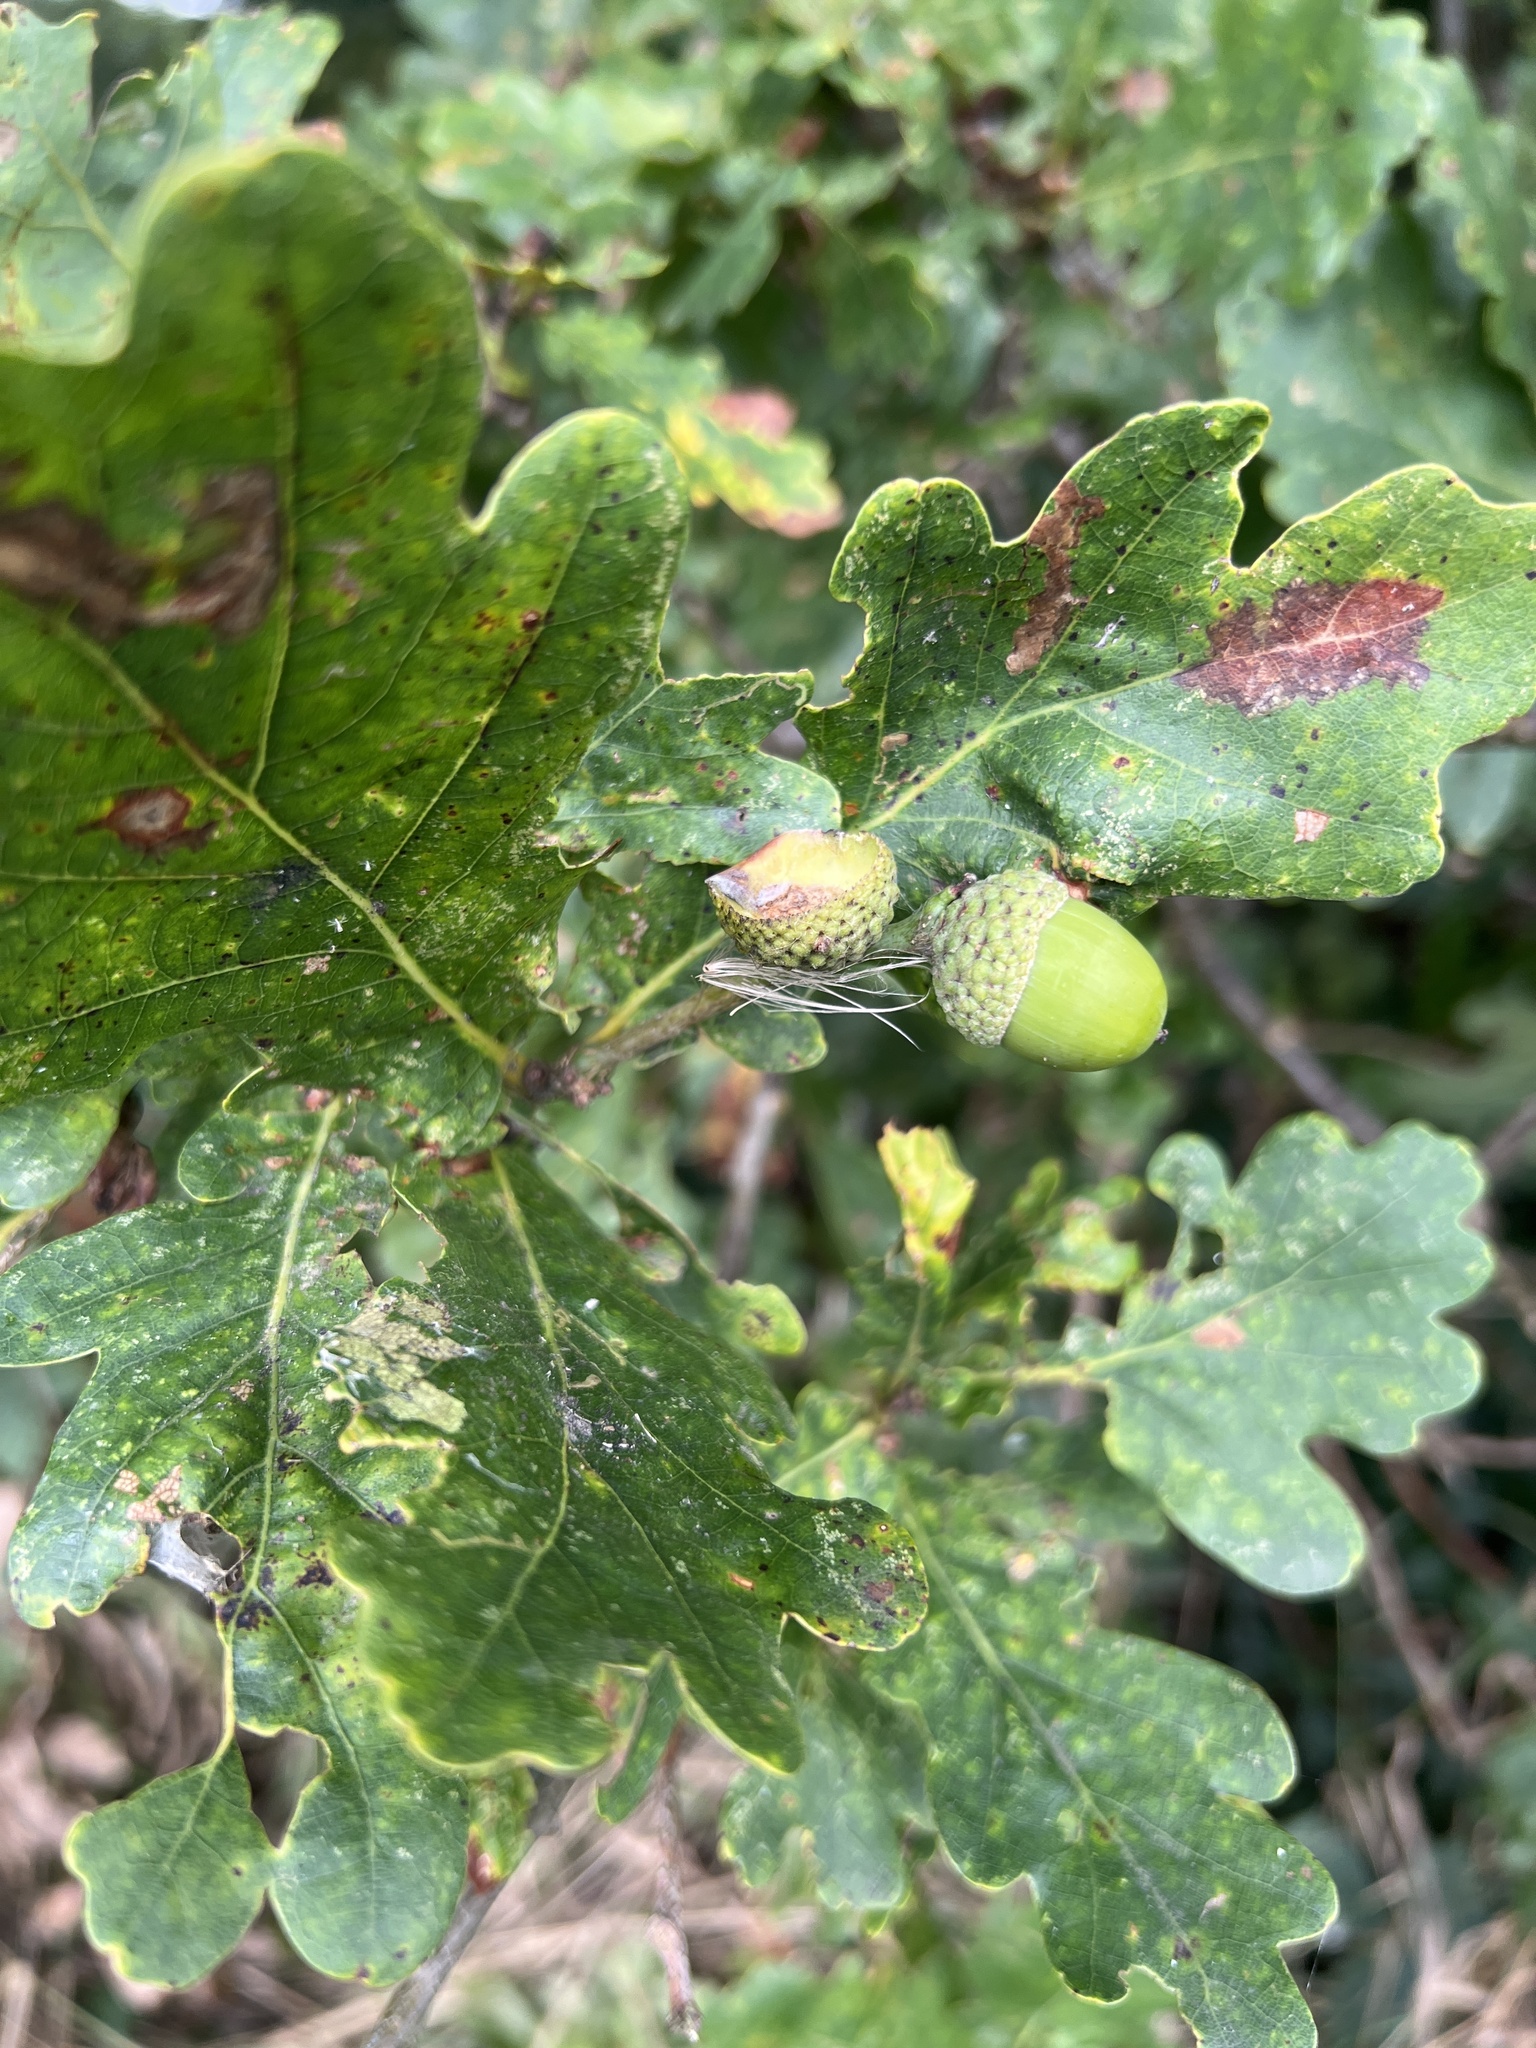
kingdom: Plantae
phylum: Tracheophyta
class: Magnoliopsida
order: Fagales
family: Fagaceae
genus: Quercus
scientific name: Quercus robur
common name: Pedunculate oak
